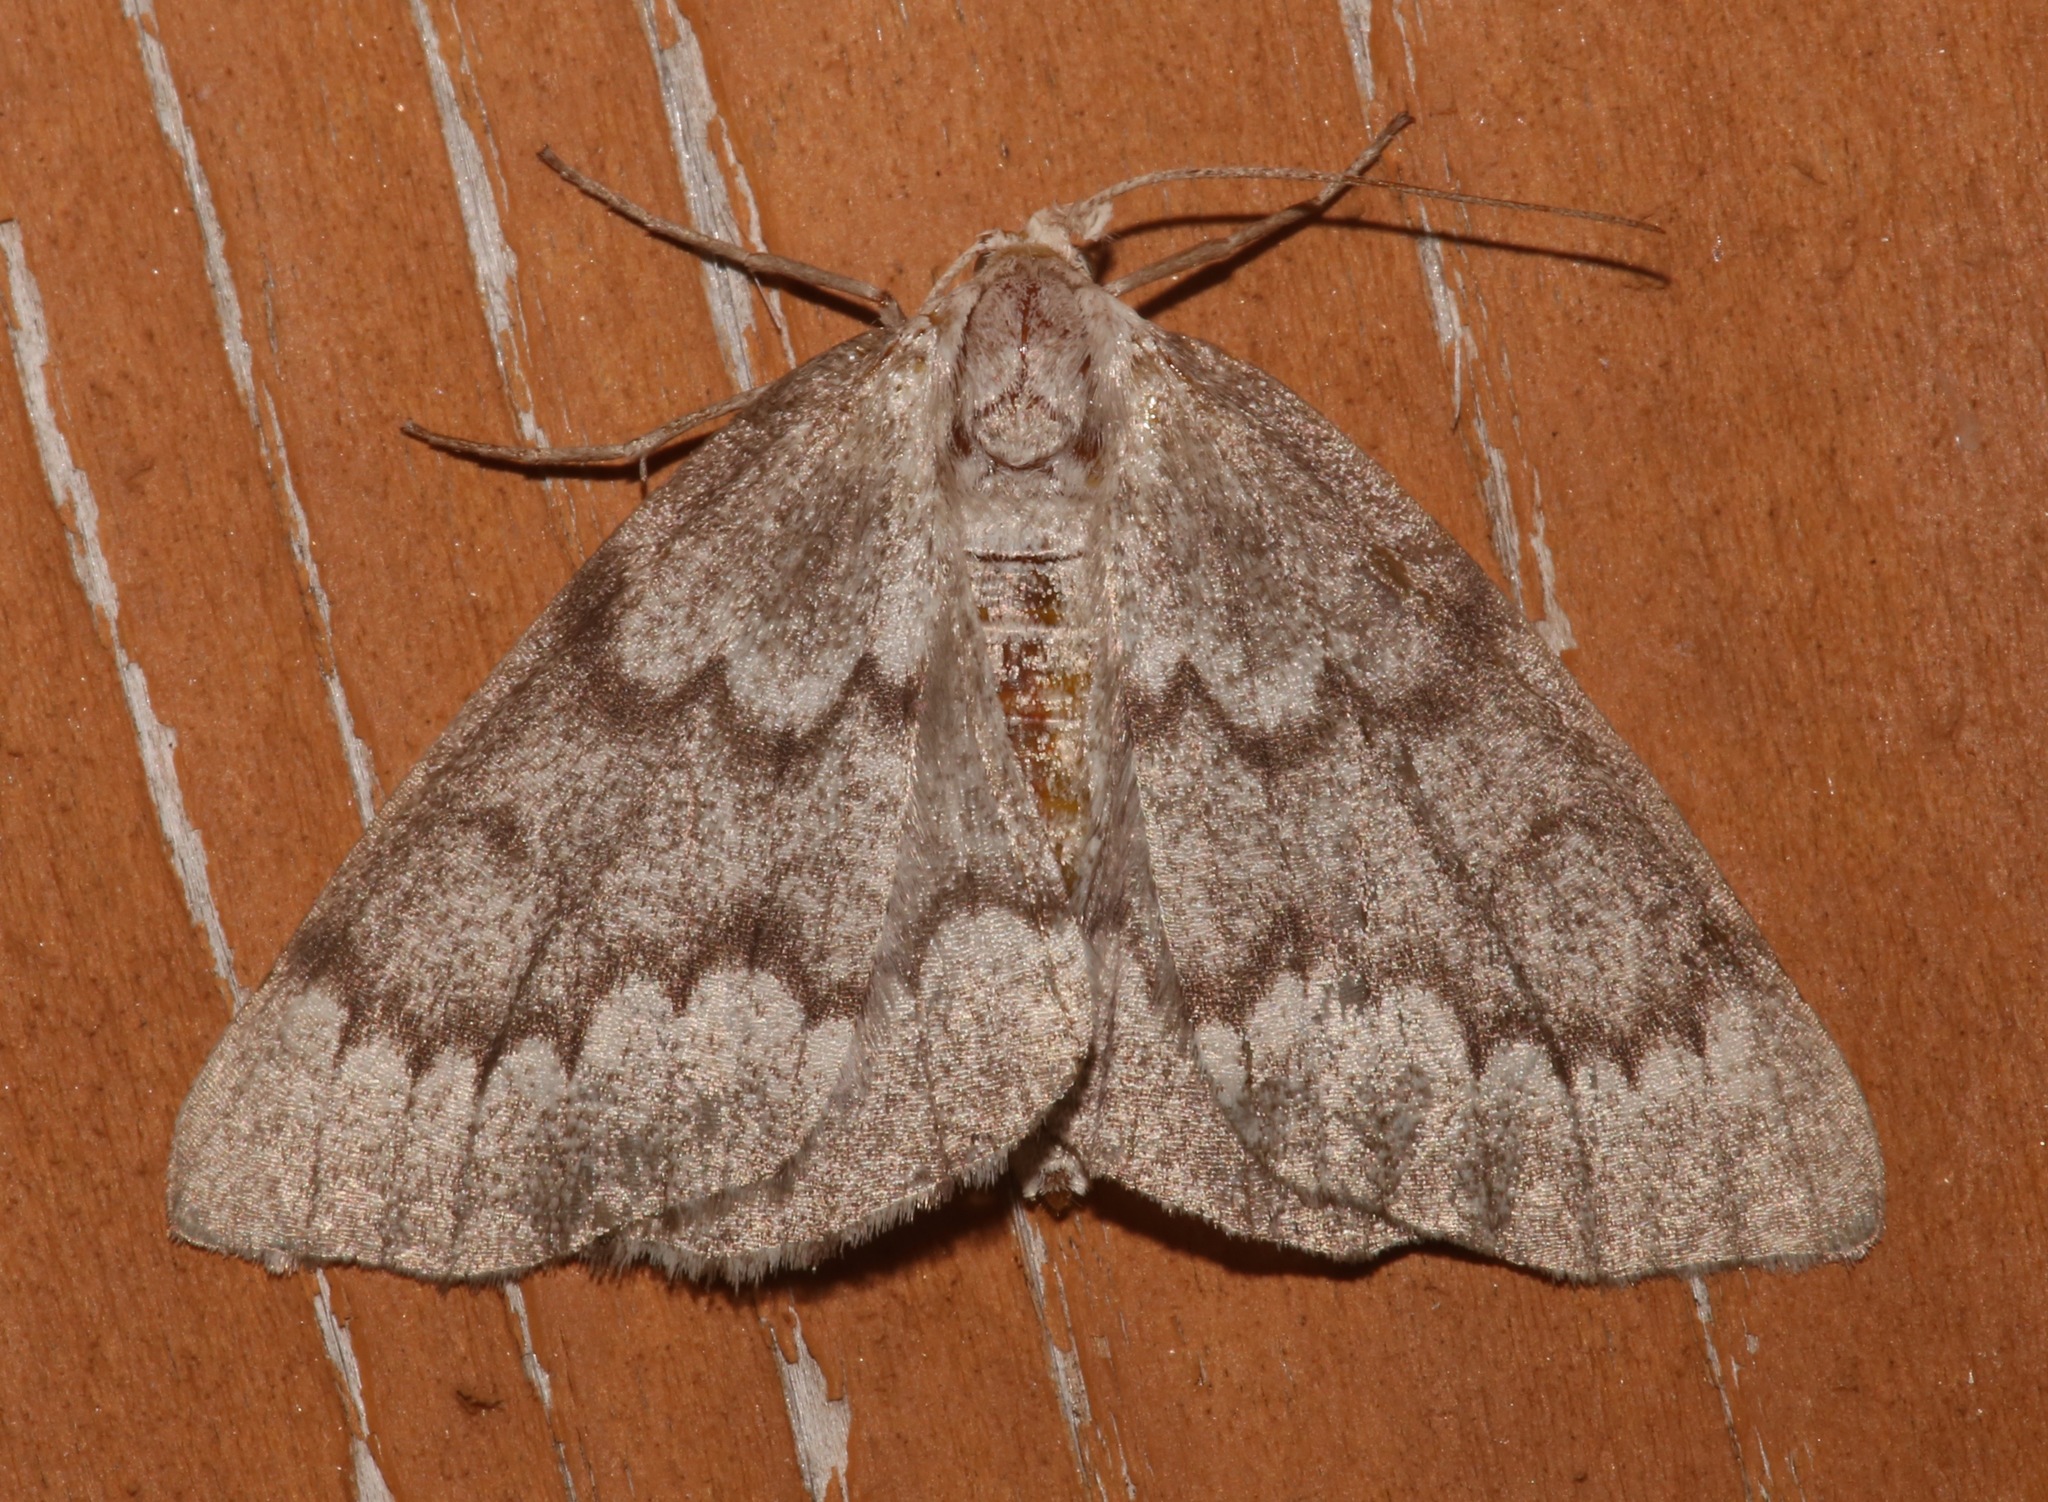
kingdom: Animalia
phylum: Arthropoda
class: Insecta
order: Lepidoptera
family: Geometridae
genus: Nepytia
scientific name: Nepytia semiclusaria
